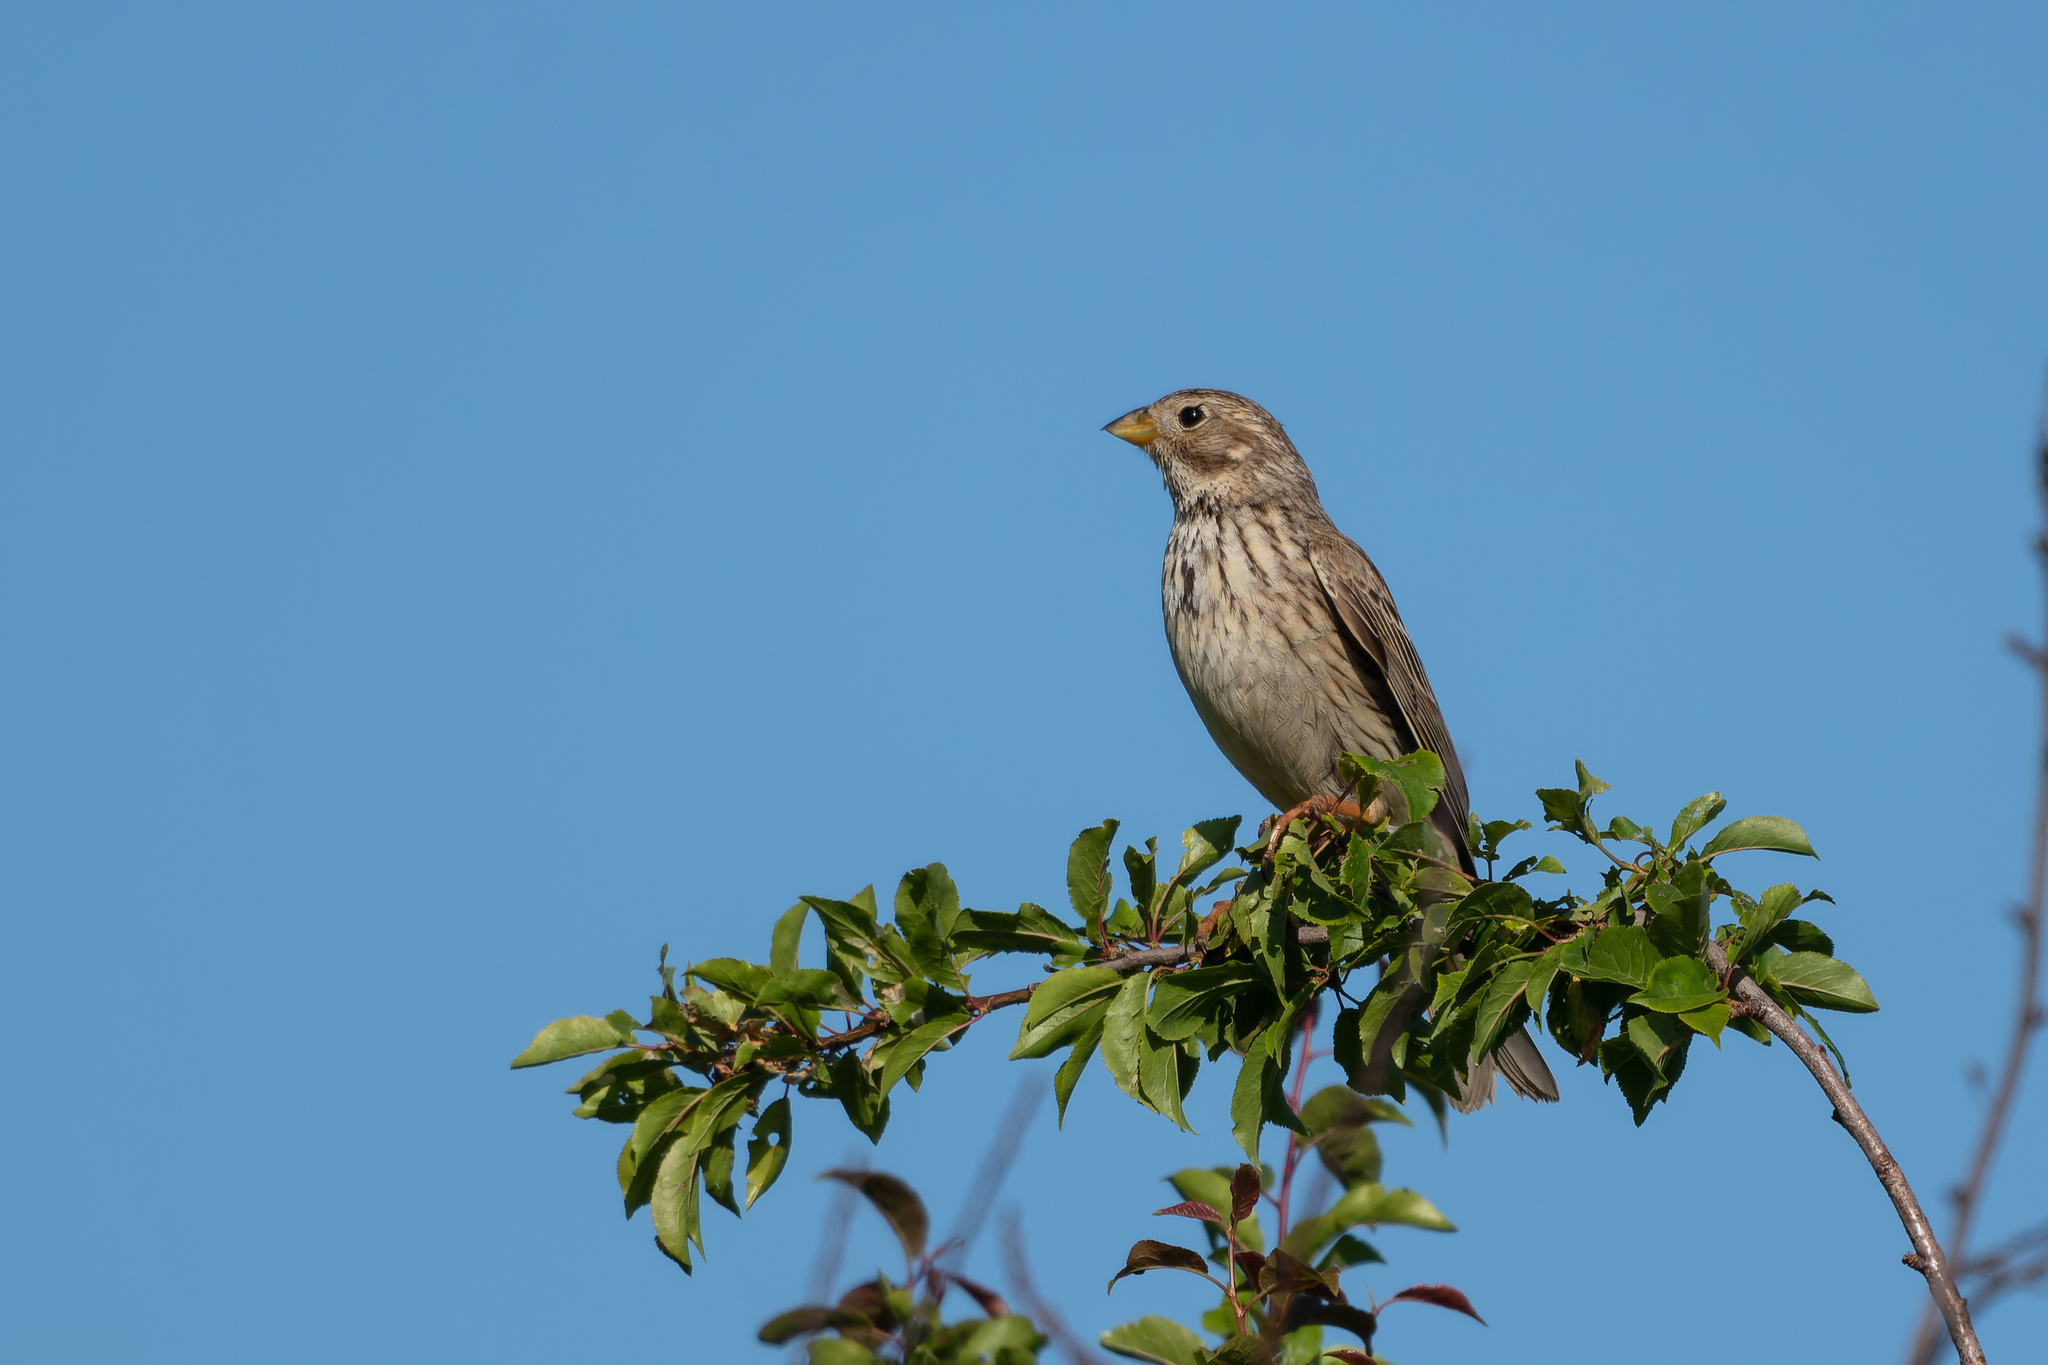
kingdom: Animalia
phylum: Chordata
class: Aves
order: Passeriformes
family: Emberizidae
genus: Emberiza
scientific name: Emberiza calandra
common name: Corn bunting
